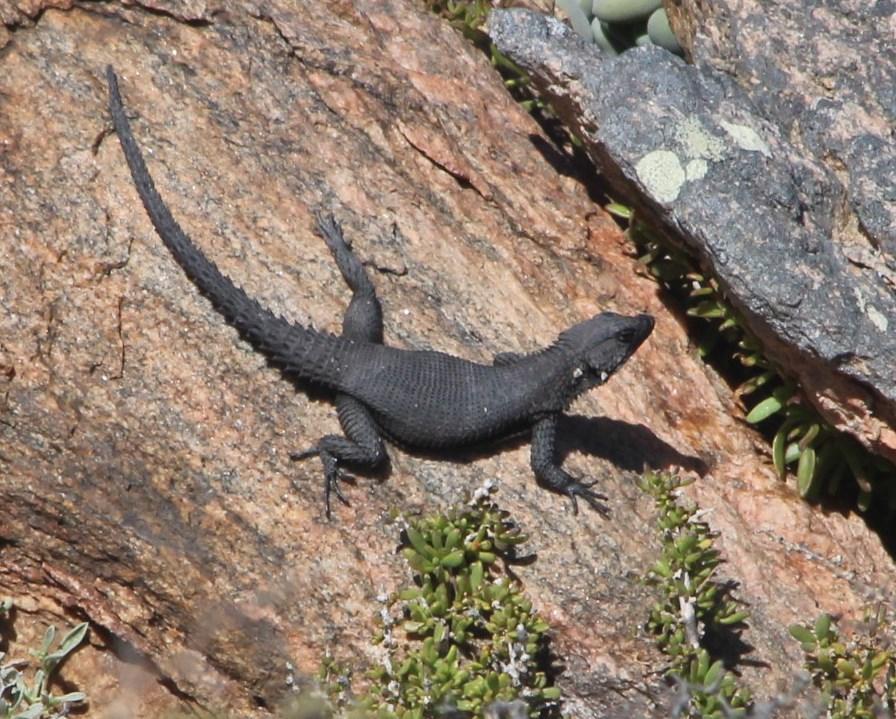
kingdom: Animalia
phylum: Chordata
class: Squamata
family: Cordylidae
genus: Karusasaurus
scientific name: Karusasaurus polyzonus
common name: Karoo girdled lizard
